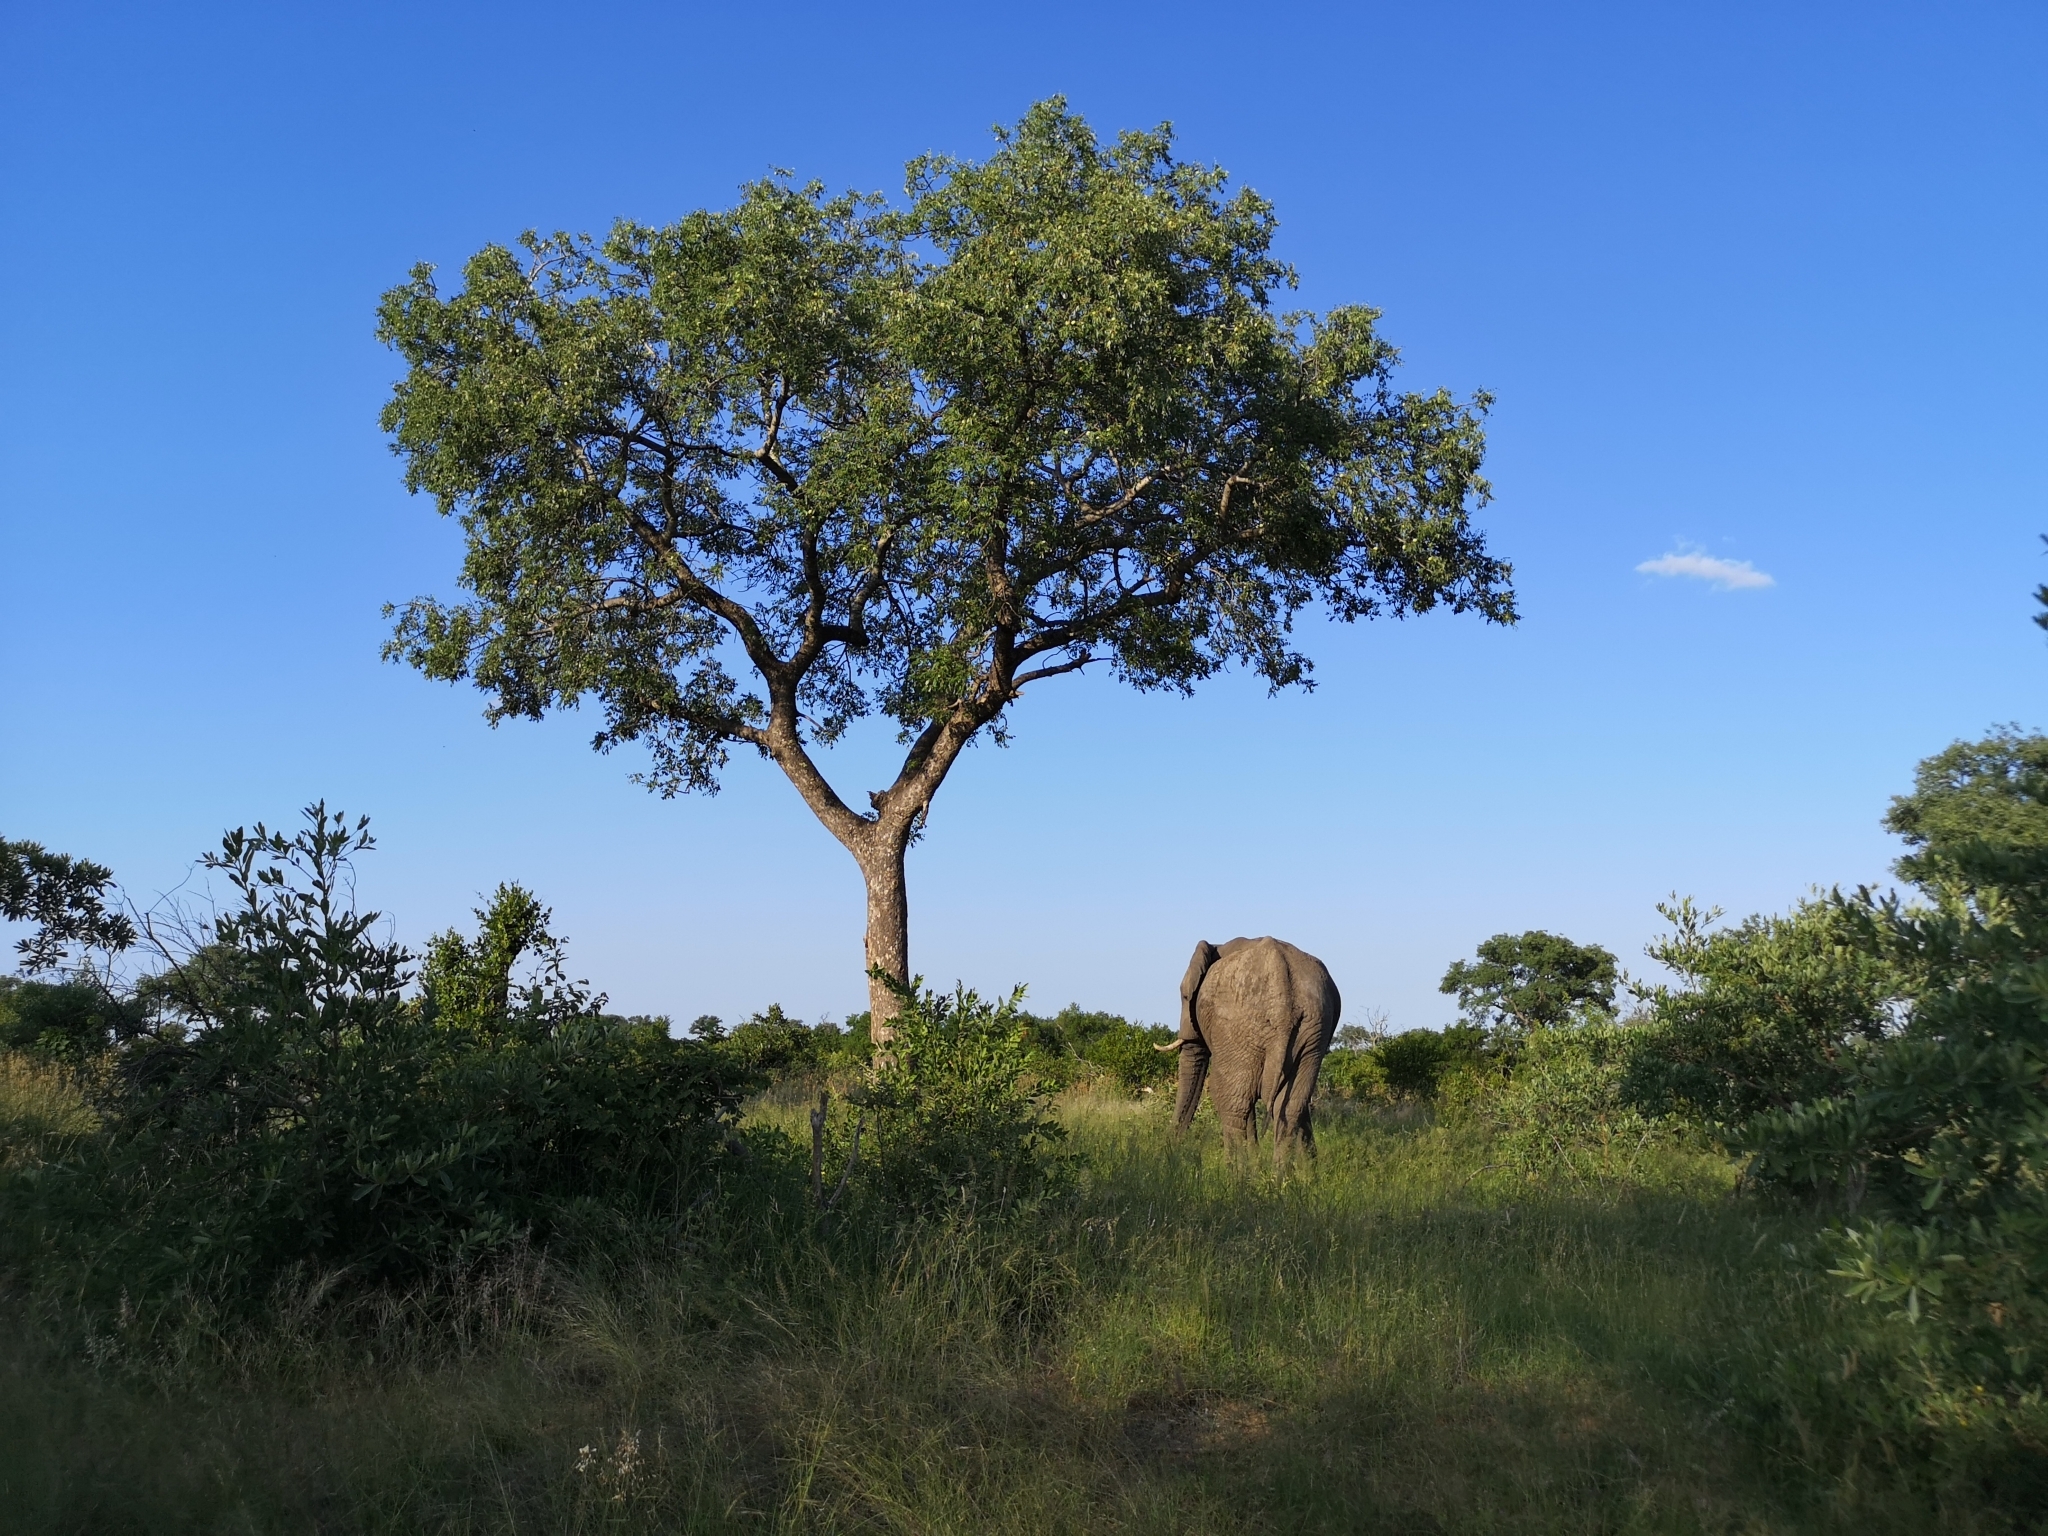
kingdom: Plantae
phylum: Tracheophyta
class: Magnoliopsida
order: Sapindales
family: Anacardiaceae
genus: Sclerocarya
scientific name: Sclerocarya birrea
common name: Marula
